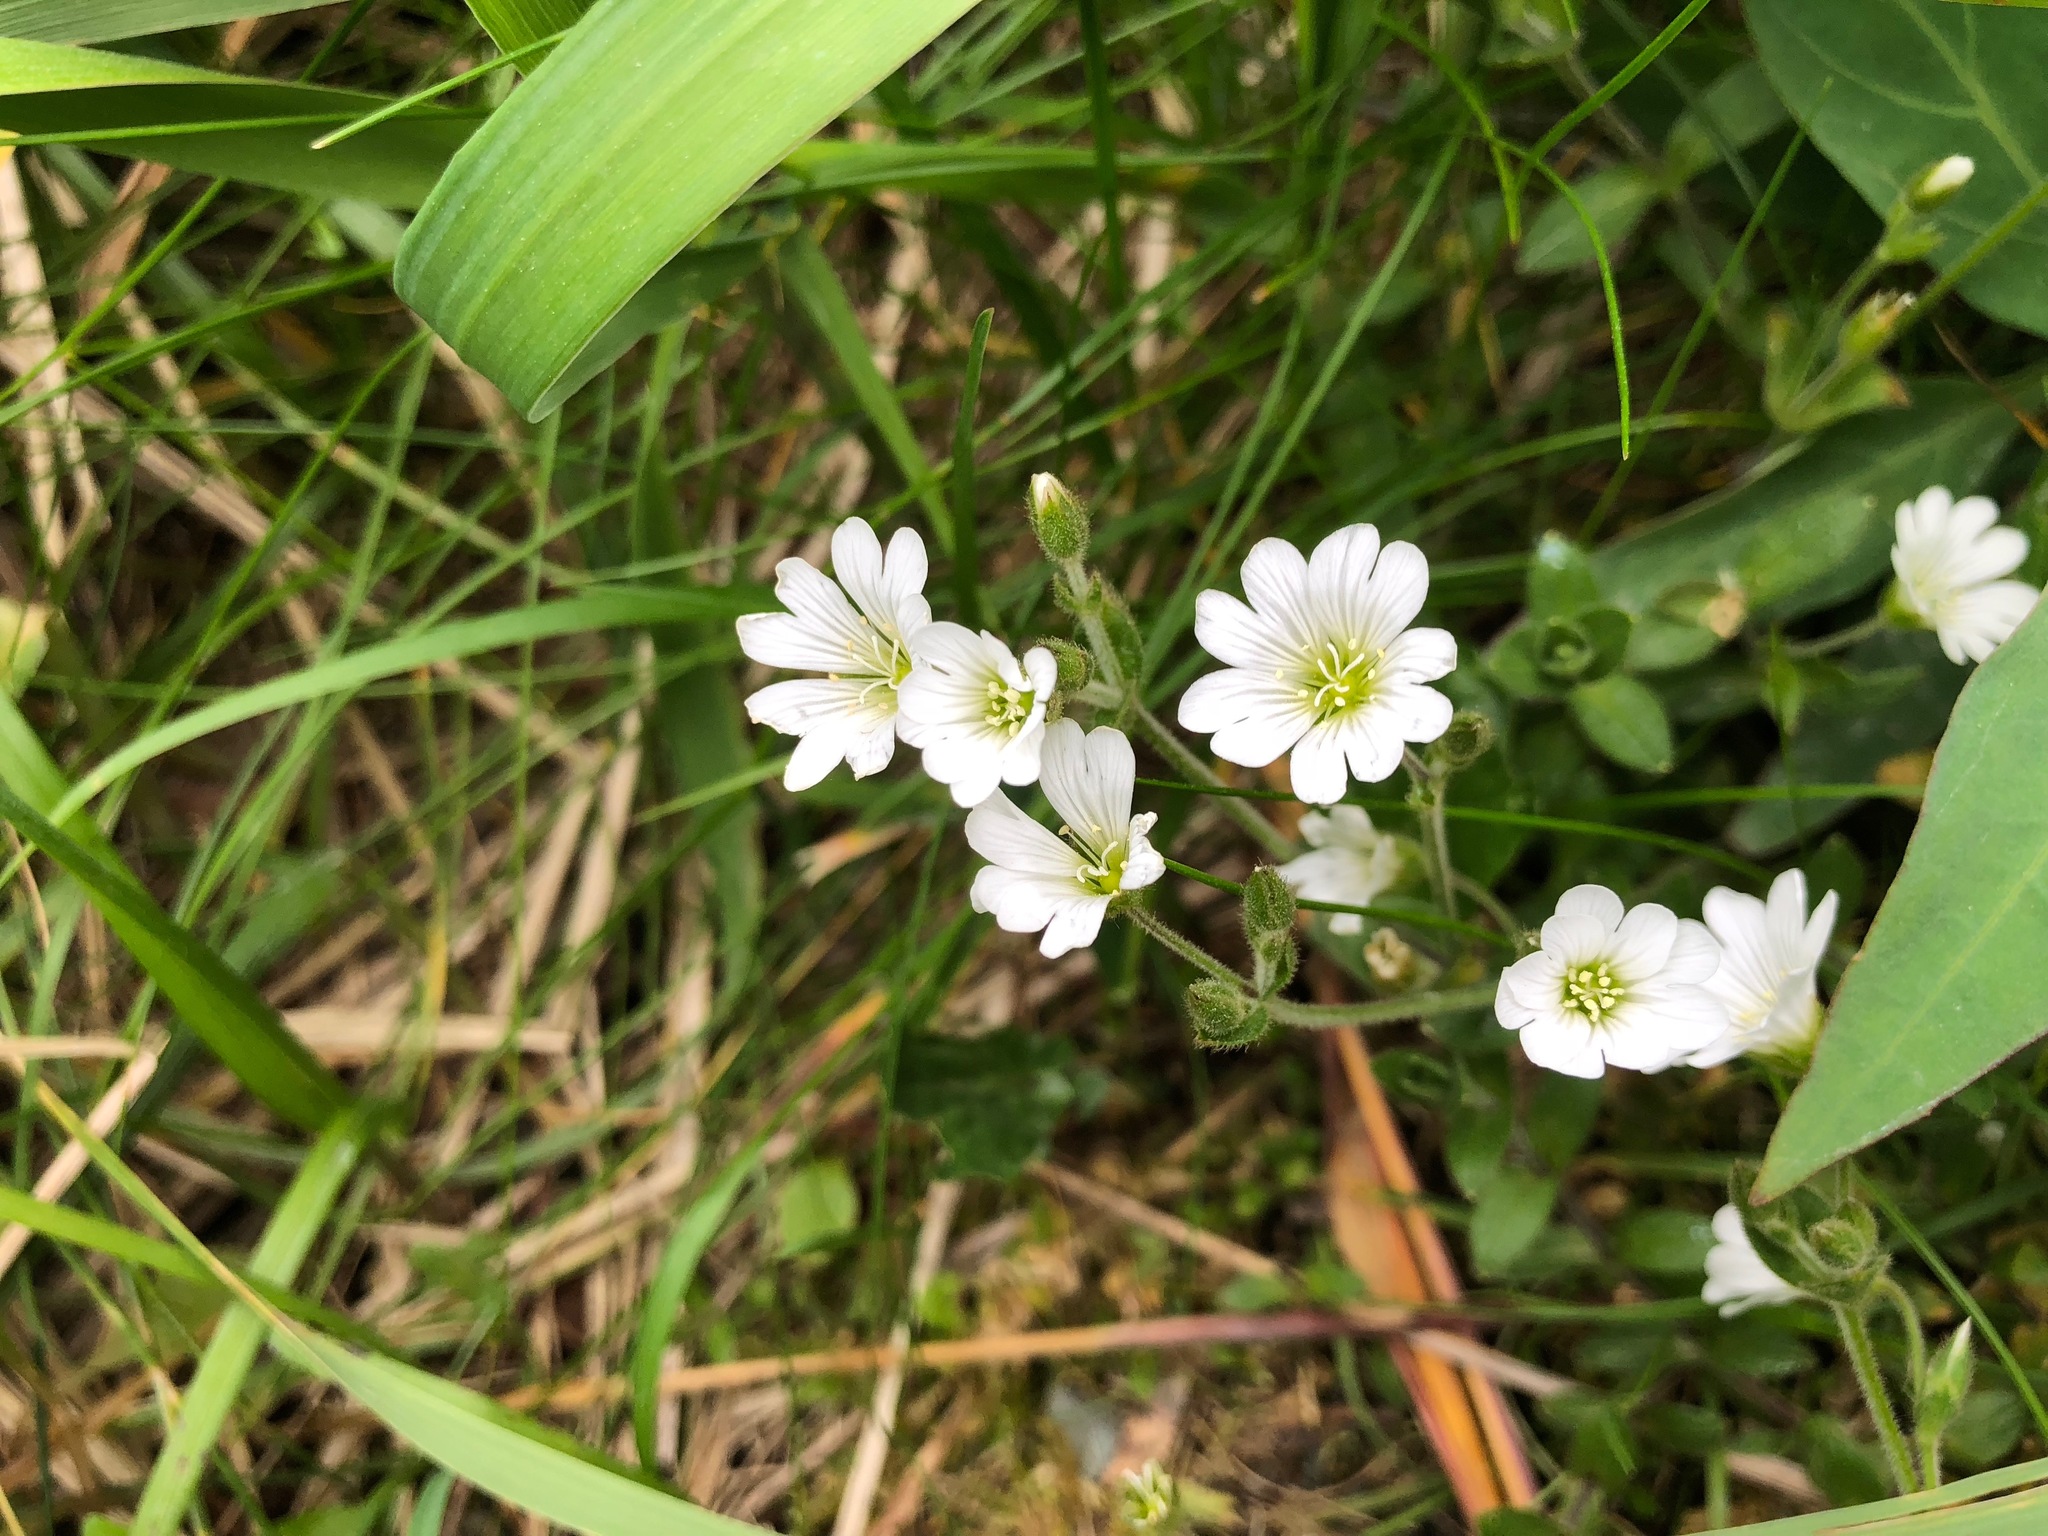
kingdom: Plantae
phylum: Tracheophyta
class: Magnoliopsida
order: Caryophyllales
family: Caryophyllaceae
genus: Cerastium
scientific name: Cerastium beeringianum
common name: Bering mouse-ear chickweed
